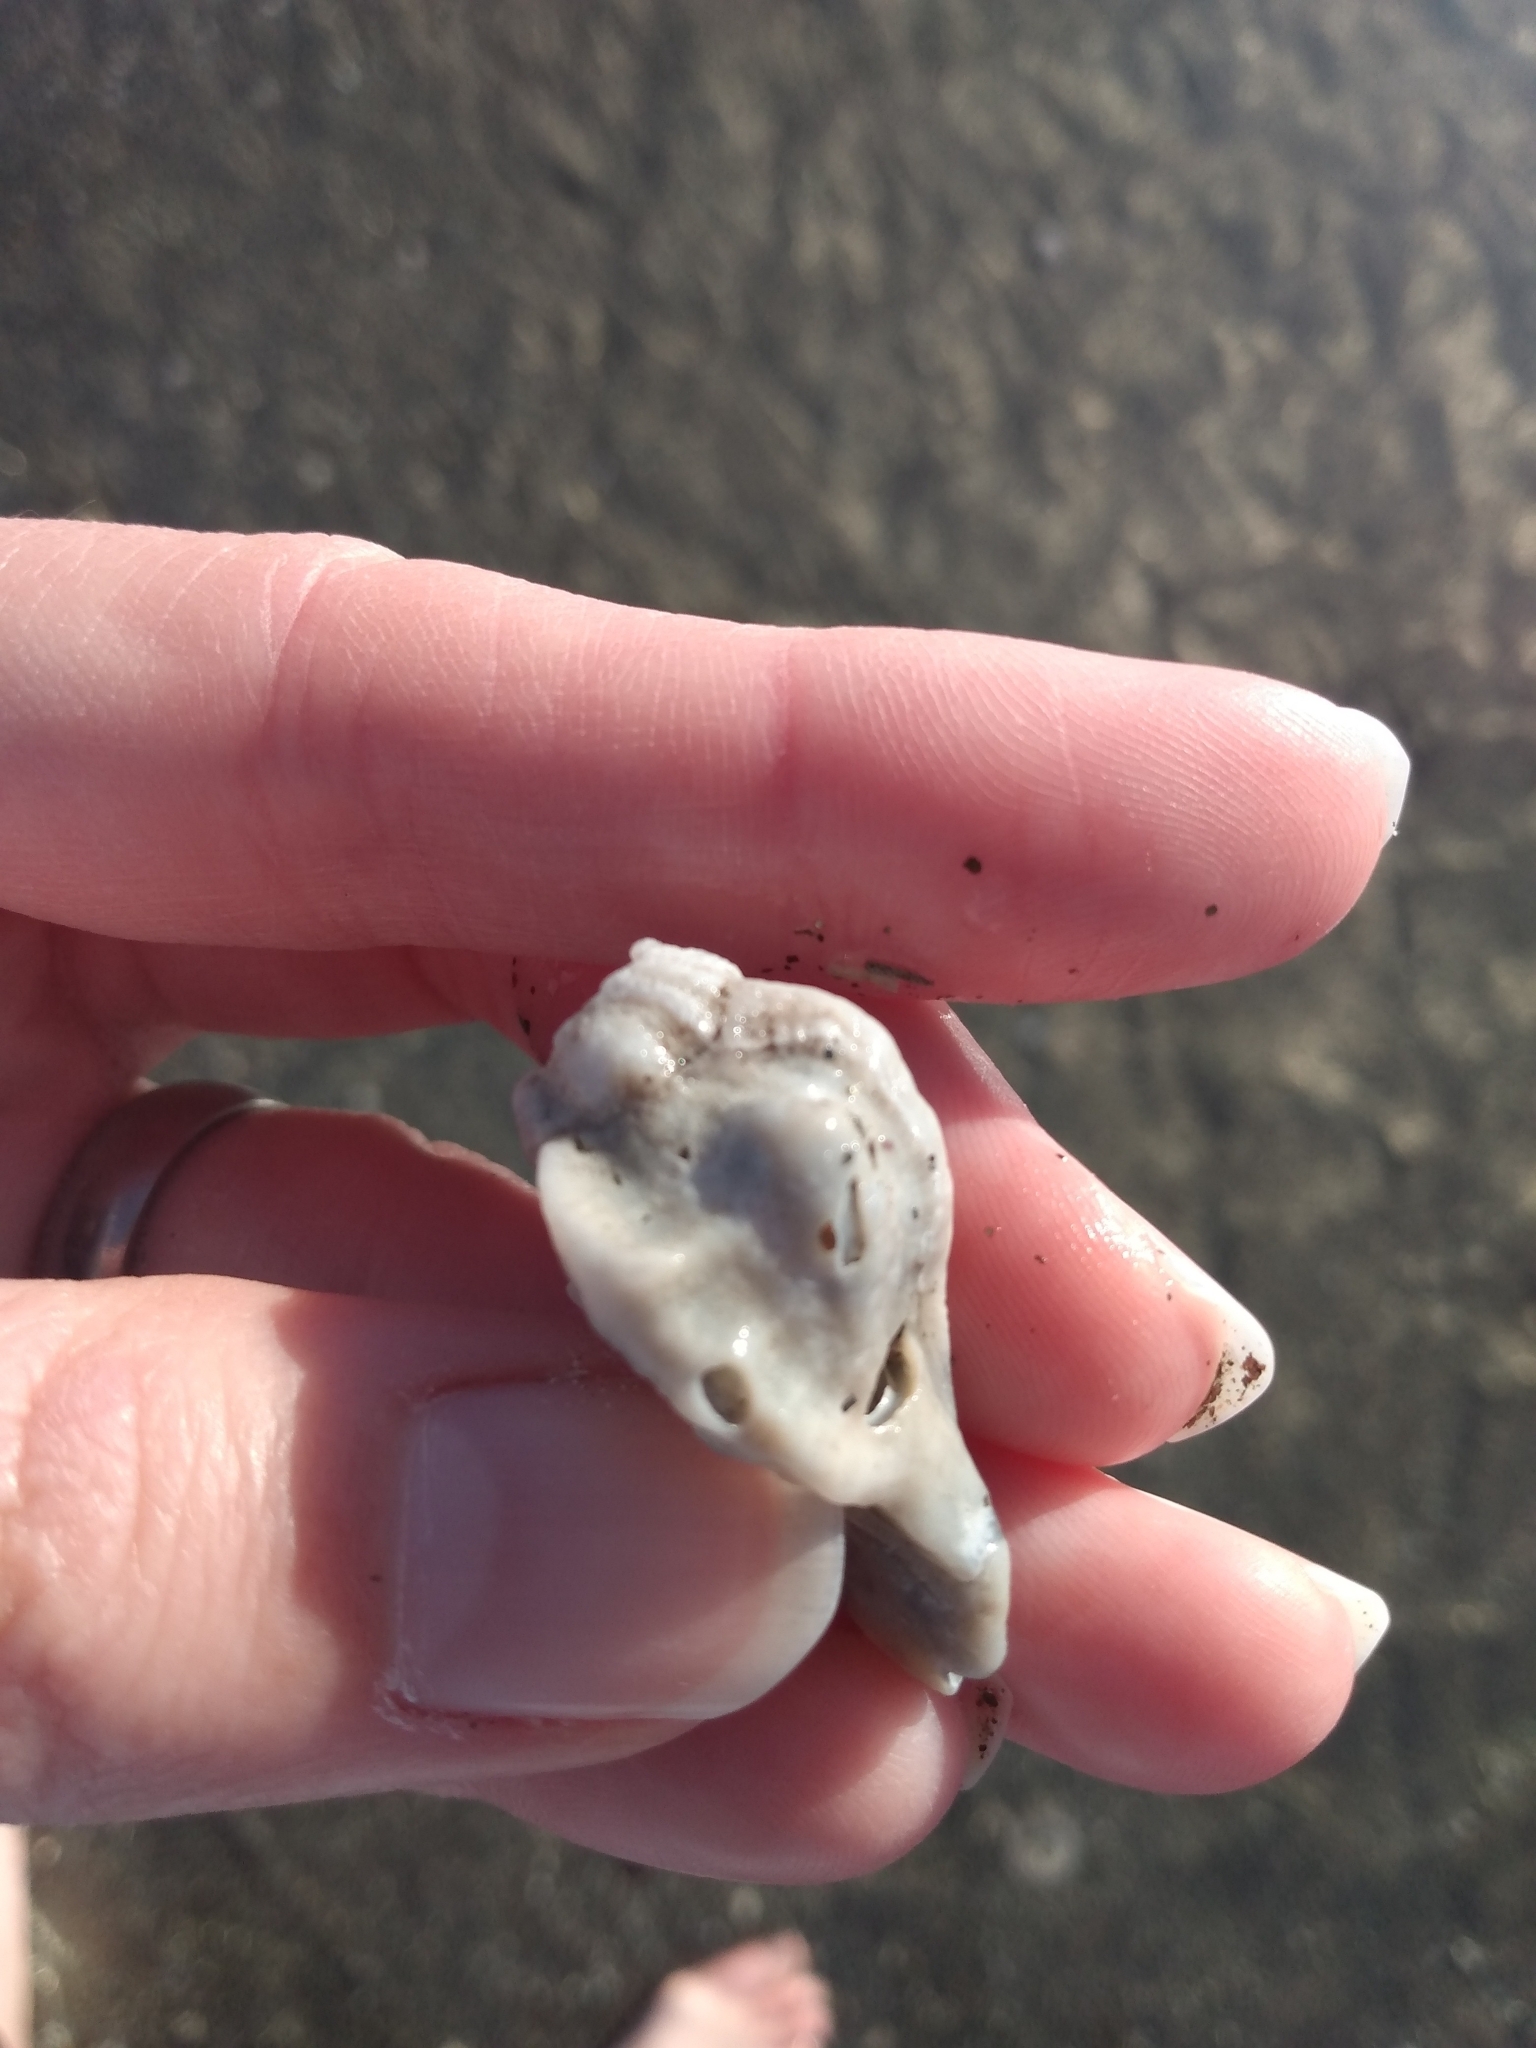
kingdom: Animalia
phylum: Mollusca
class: Gastropoda
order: Neogastropoda
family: Muricidae
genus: Ceratostoma
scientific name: Ceratostoma nuttalli
